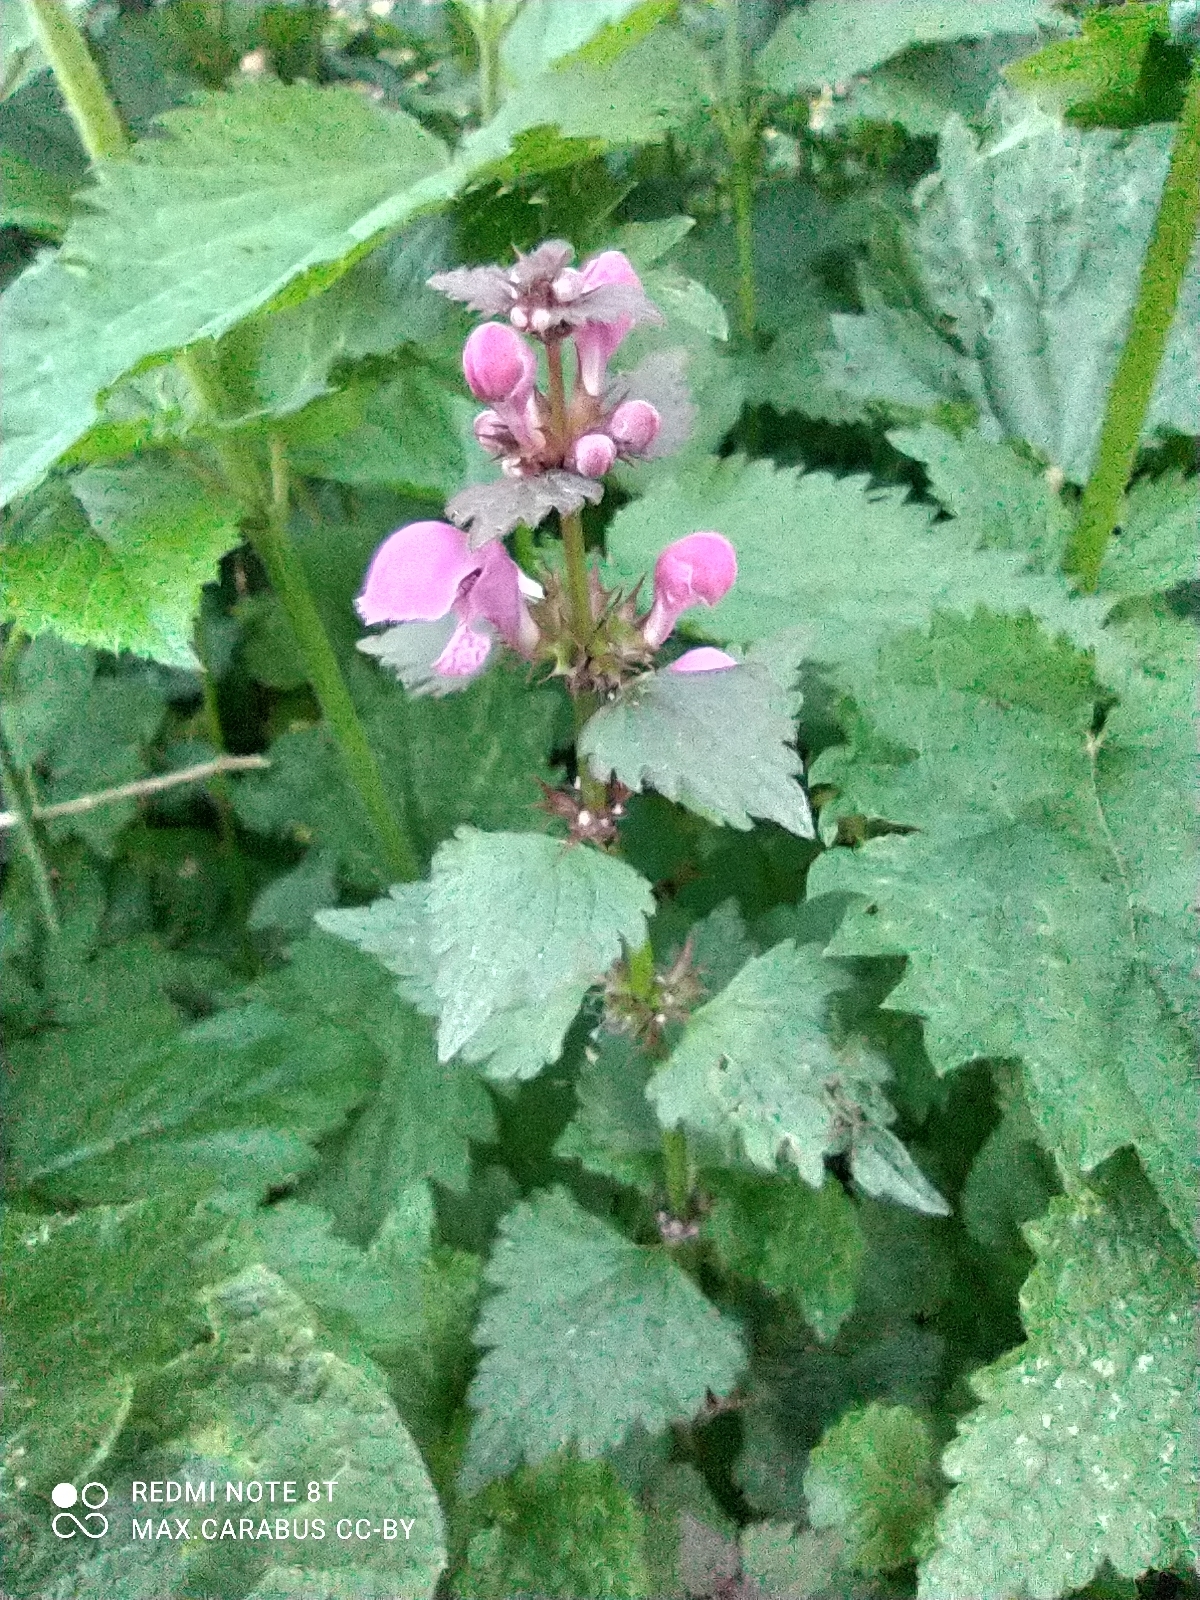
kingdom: Plantae
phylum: Tracheophyta
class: Magnoliopsida
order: Lamiales
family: Lamiaceae
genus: Lamium
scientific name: Lamium maculatum
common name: Spotted dead-nettle
